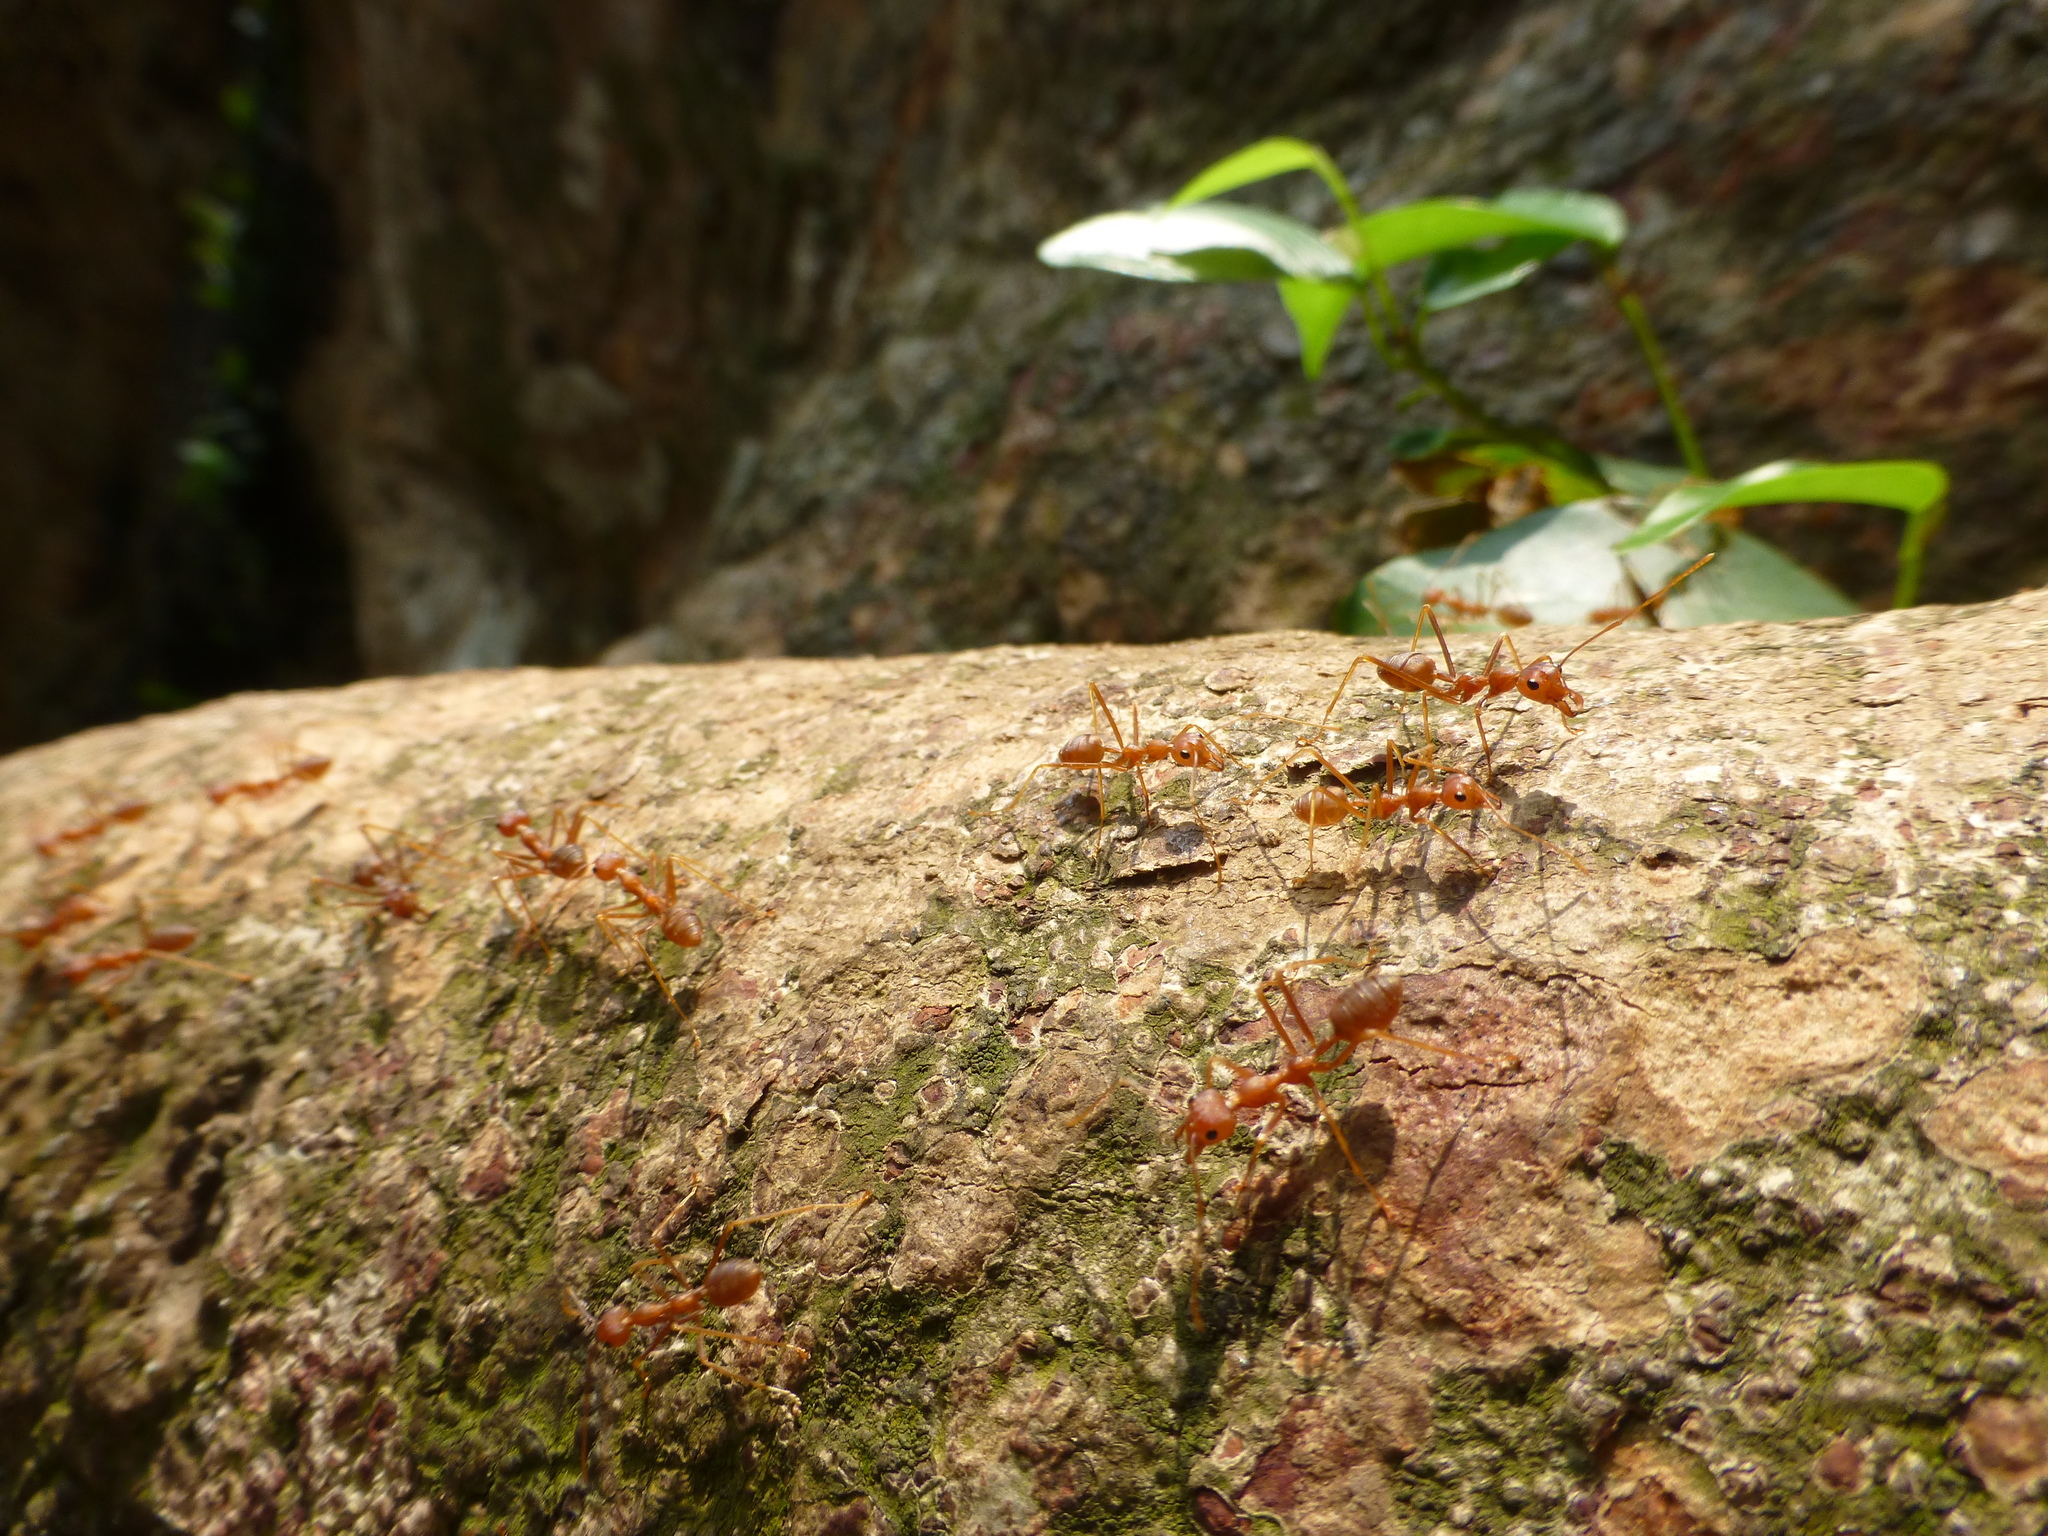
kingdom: Animalia
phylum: Arthropoda
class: Insecta
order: Hymenoptera
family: Formicidae
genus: Oecophylla
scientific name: Oecophylla smaragdina
